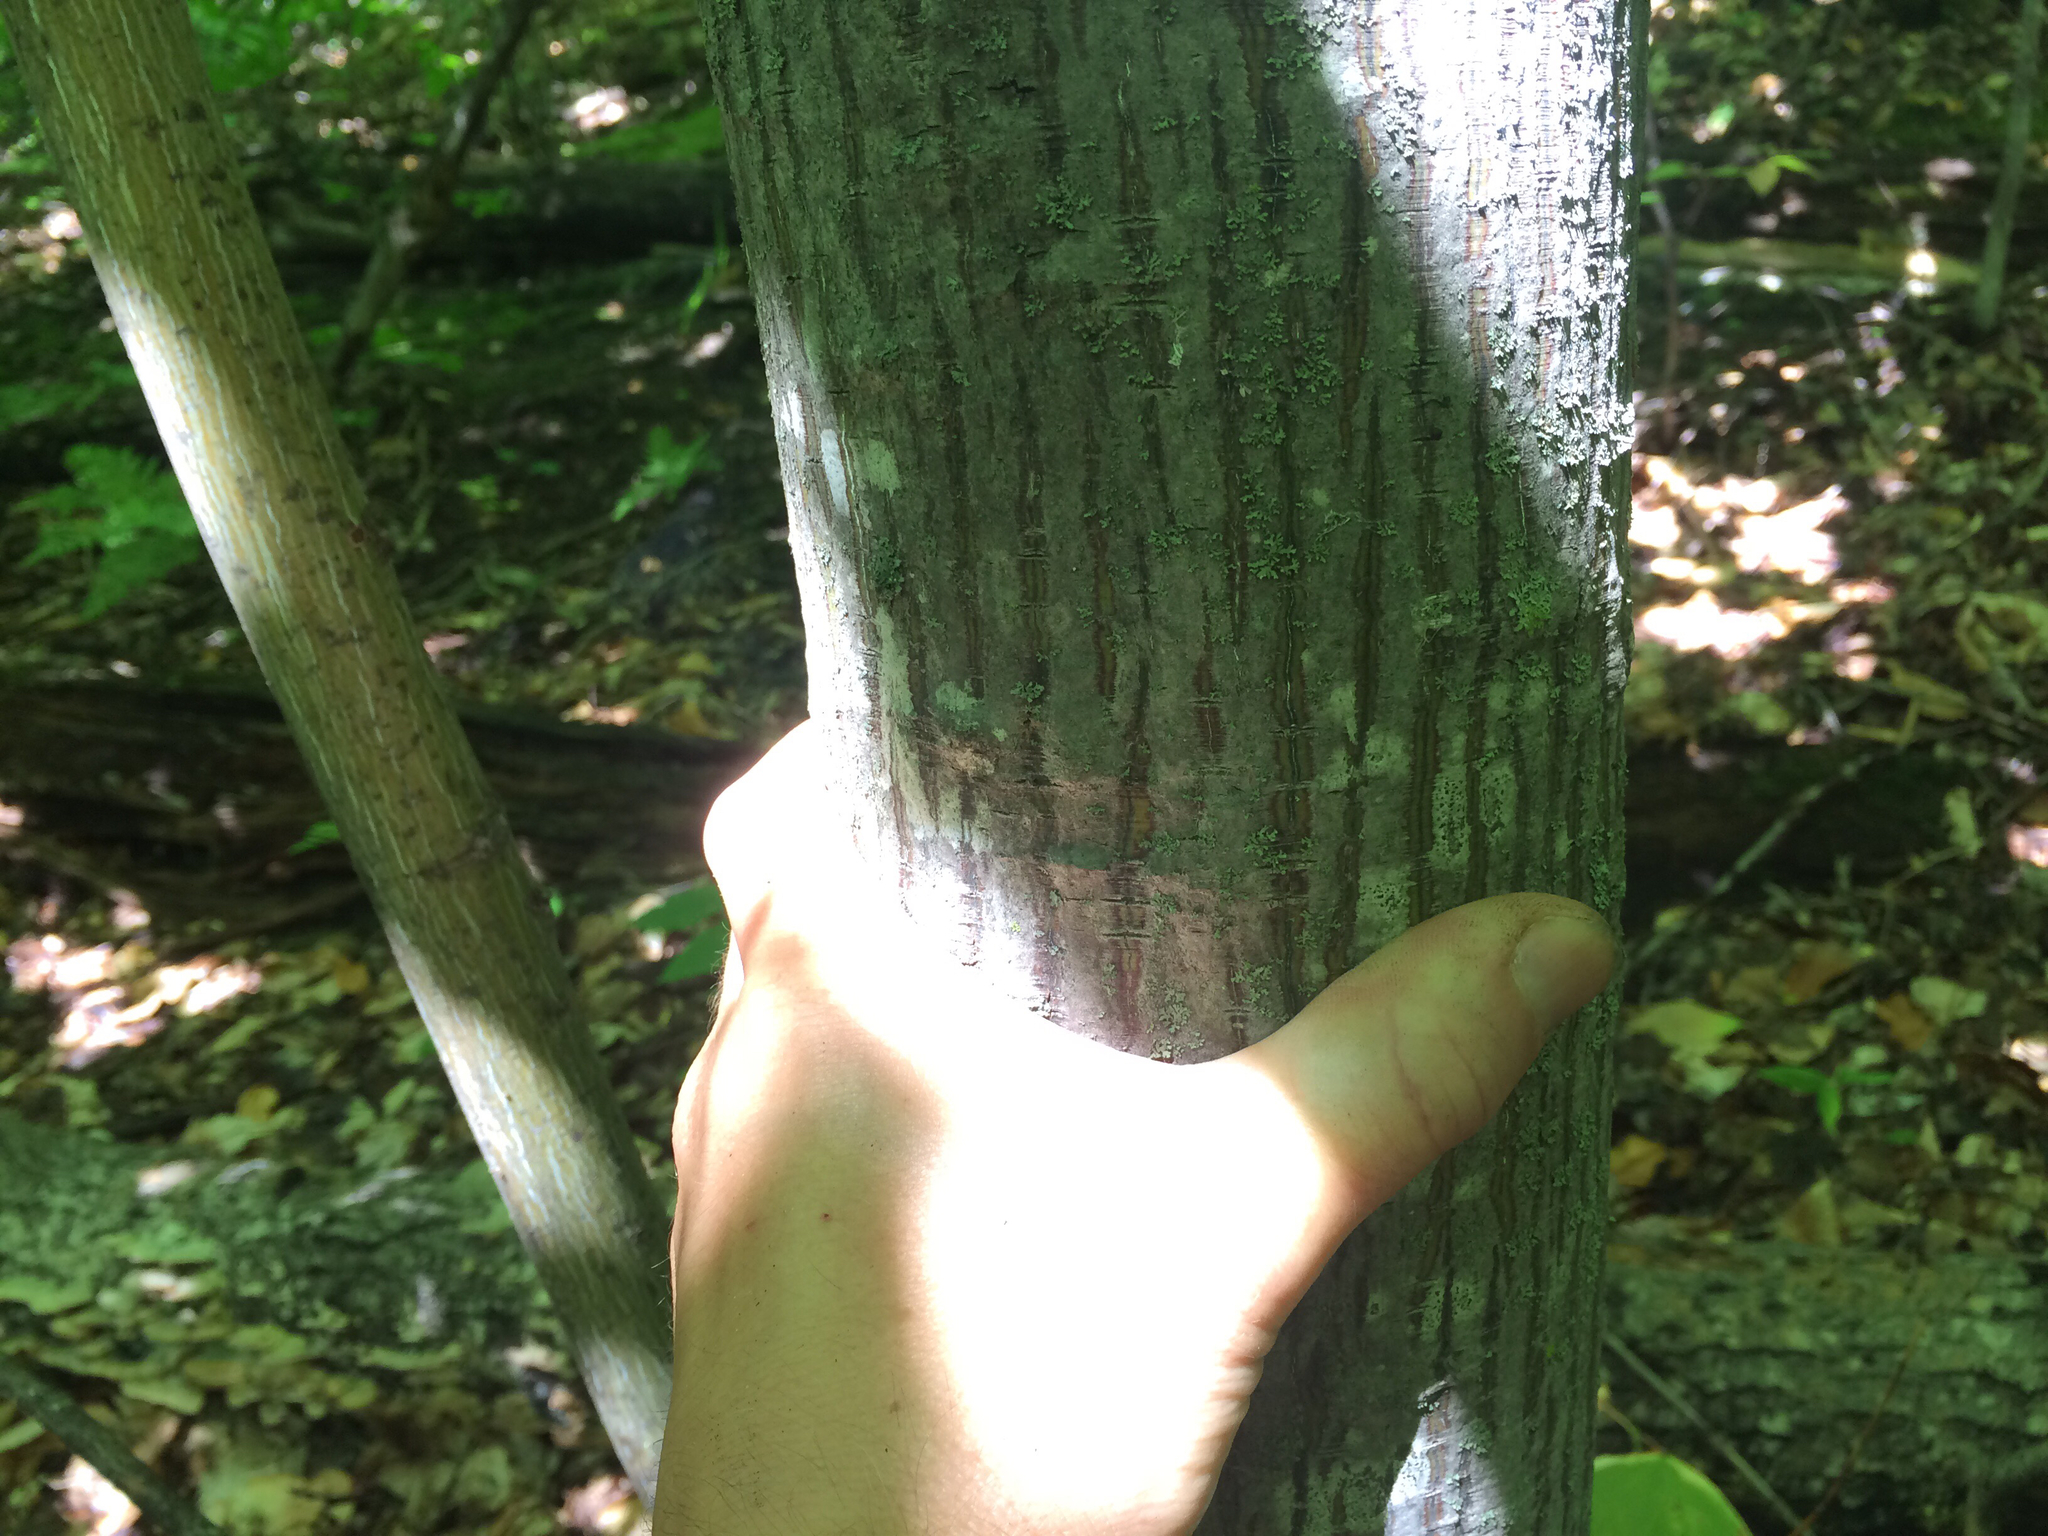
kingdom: Plantae
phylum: Tracheophyta
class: Magnoliopsida
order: Sapindales
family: Sapindaceae
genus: Acer
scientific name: Acer pensylvanicum
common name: Moosewood
